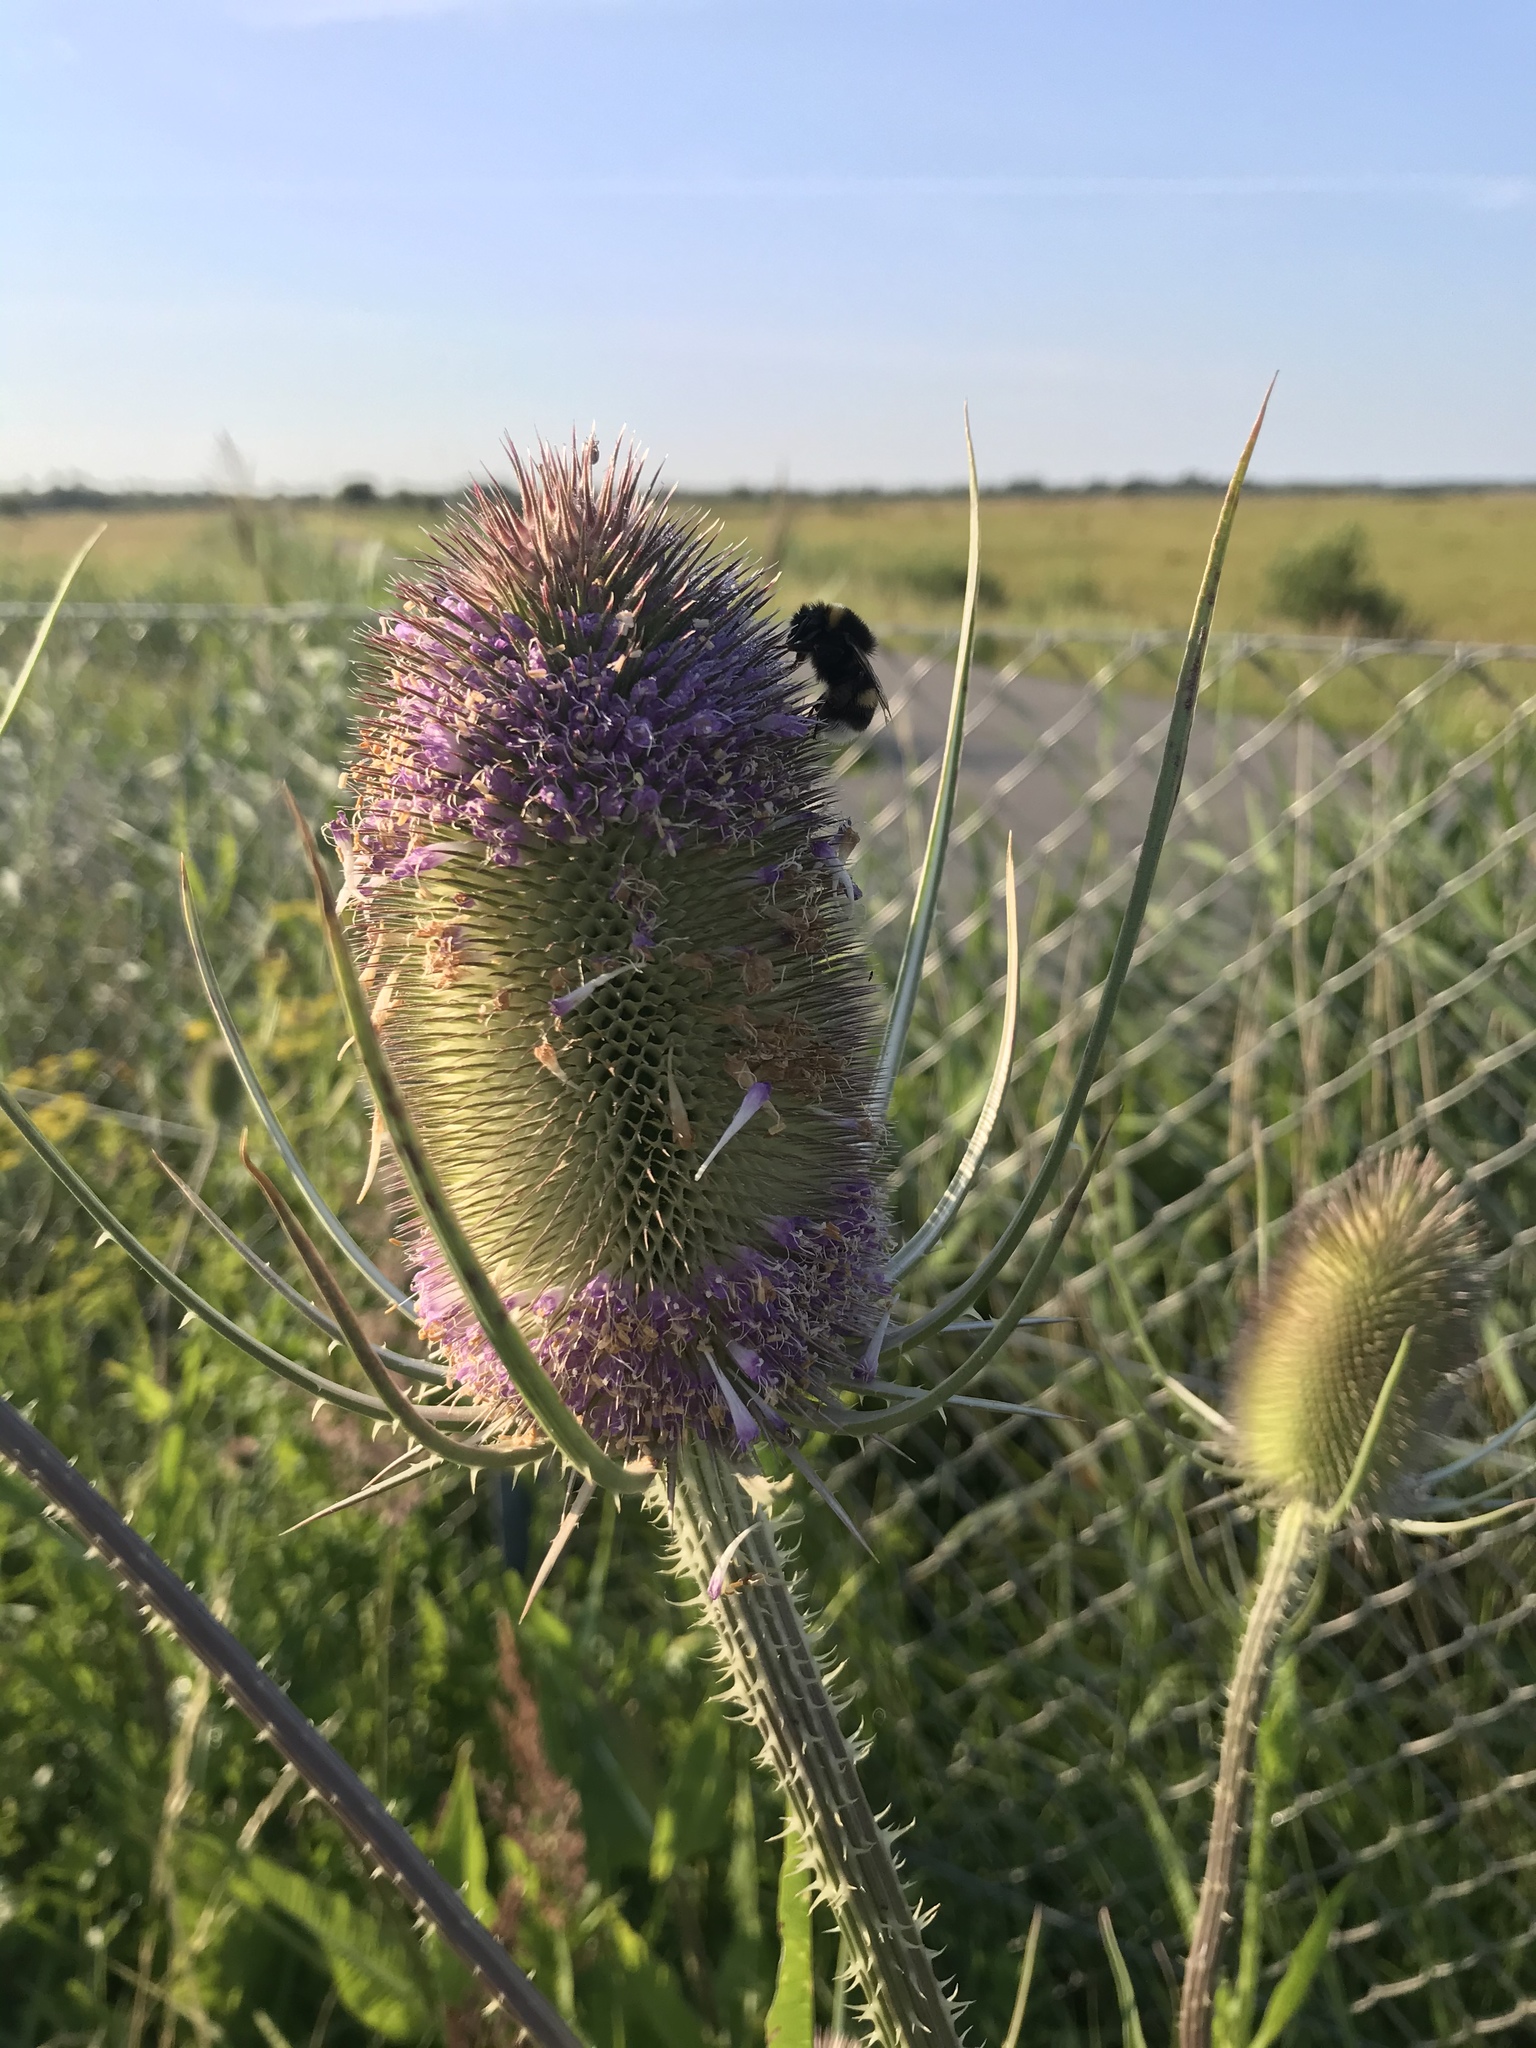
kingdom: Plantae
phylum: Tracheophyta
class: Magnoliopsida
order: Dipsacales
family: Caprifoliaceae
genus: Dipsacus
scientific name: Dipsacus fullonum
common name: Teasel
